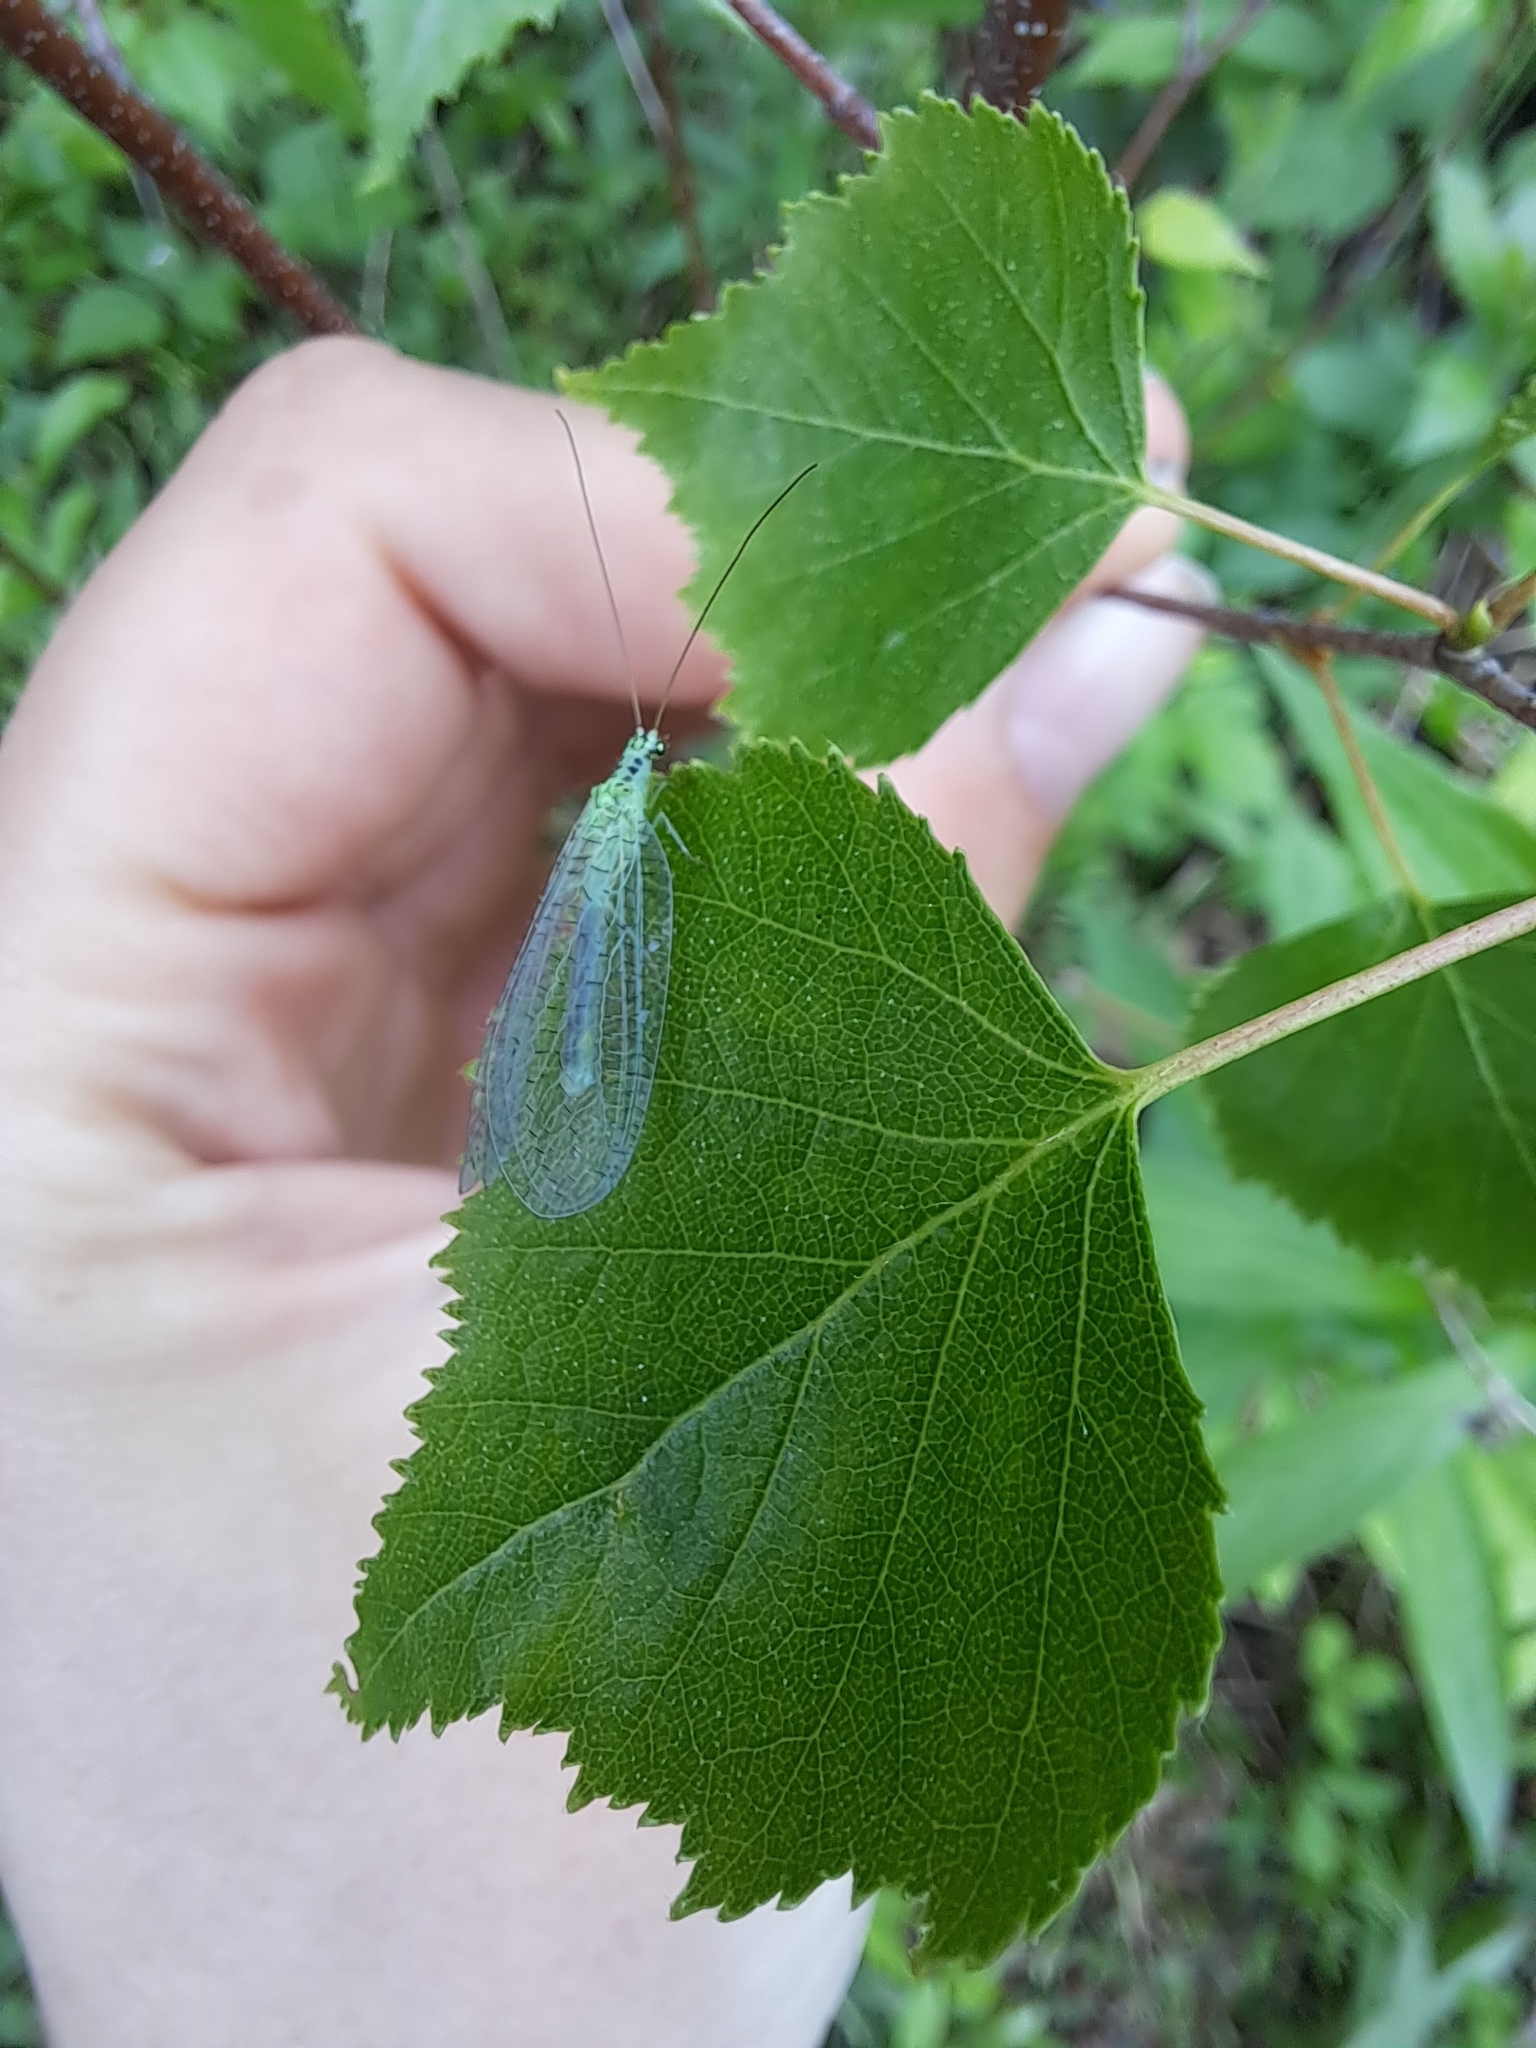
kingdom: Animalia
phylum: Arthropoda
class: Insecta
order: Neuroptera
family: Chrysopidae
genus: Chrysopa
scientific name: Chrysopa chi
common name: X-marked green lacewing
